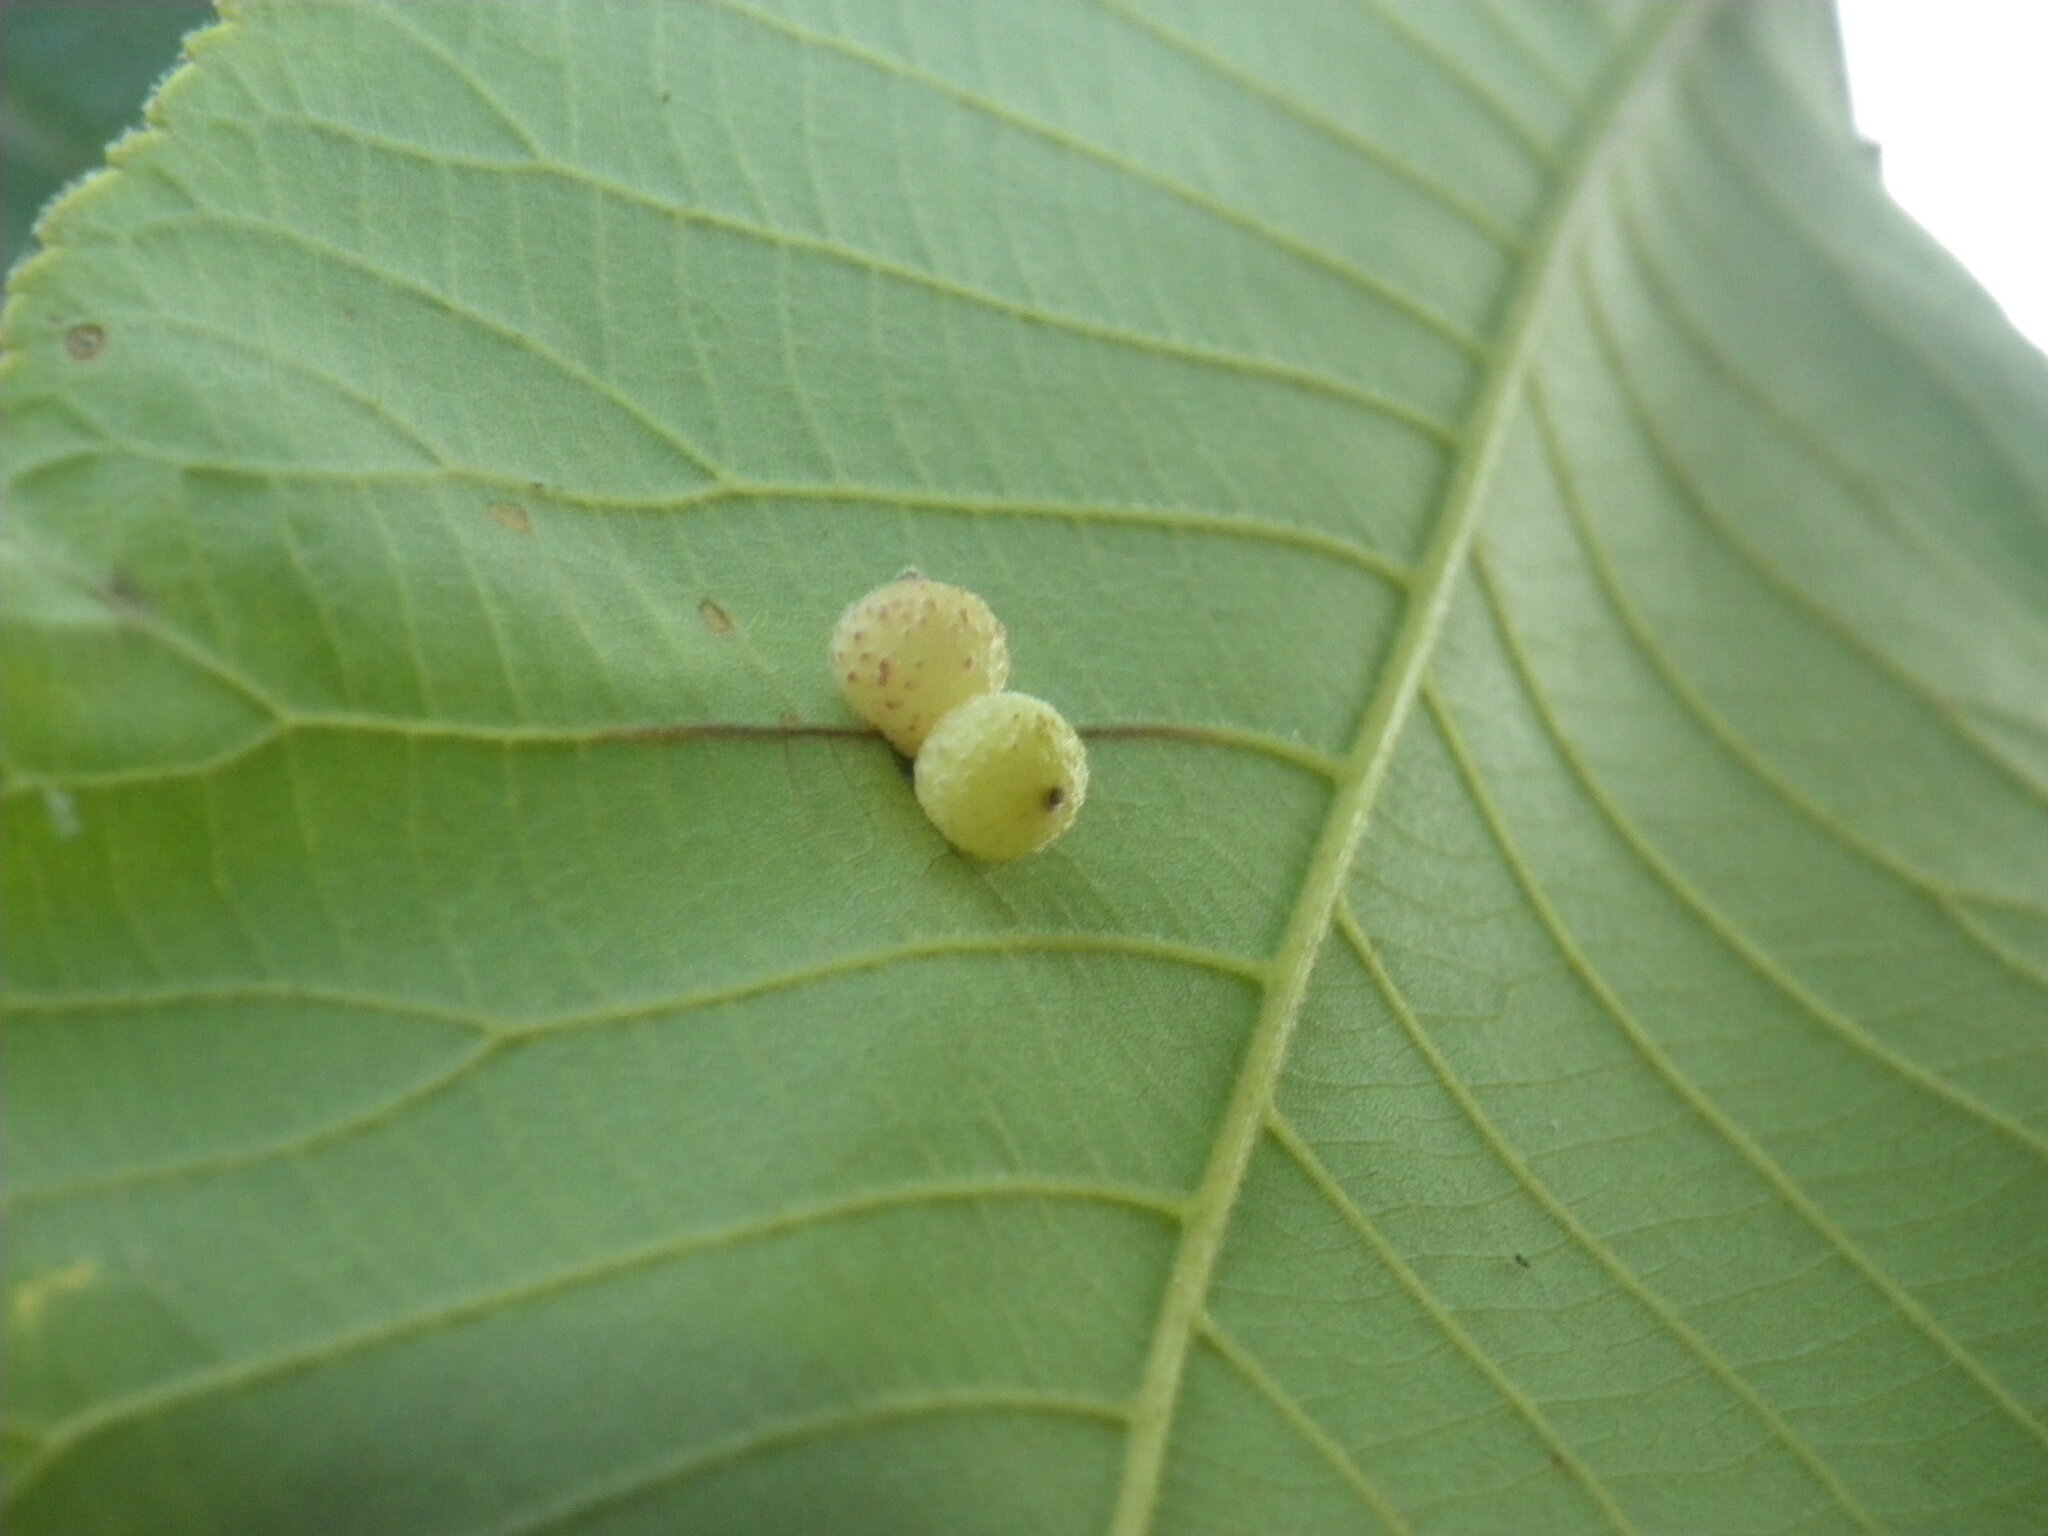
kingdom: Animalia
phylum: Arthropoda
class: Insecta
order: Diptera
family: Cecidomyiidae
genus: Caryomyia
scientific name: Caryomyia tuberidolium
